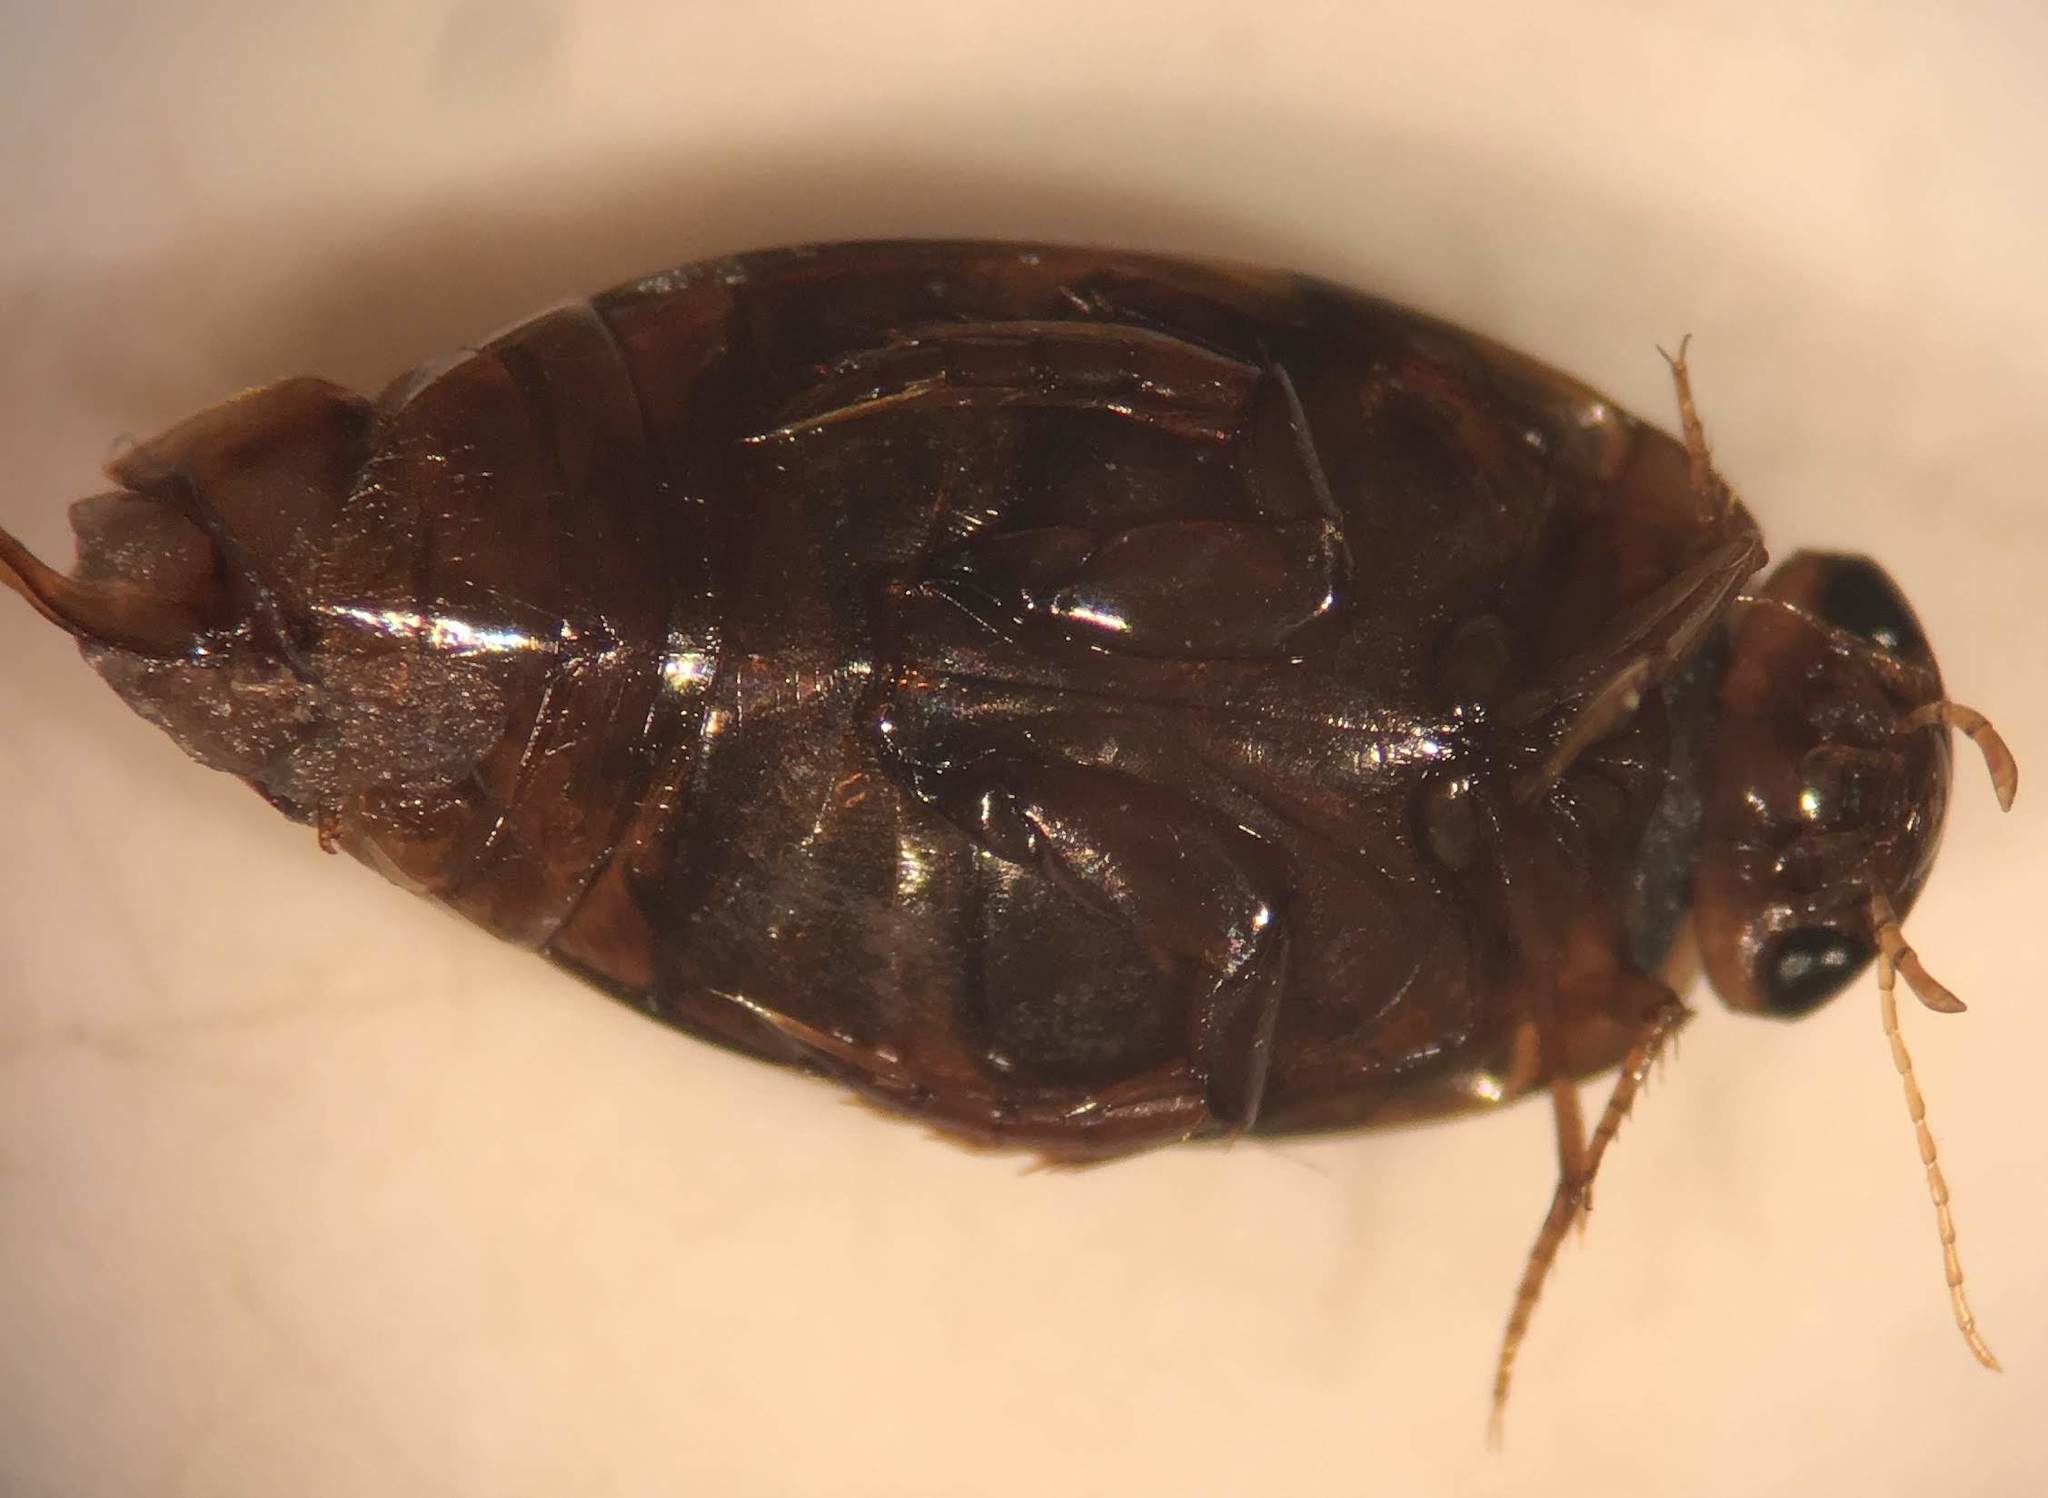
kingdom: Animalia
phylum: Arthropoda
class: Insecta
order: Coleoptera
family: Dytiscidae
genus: Laccophilus
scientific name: Laccophilus maculosus
